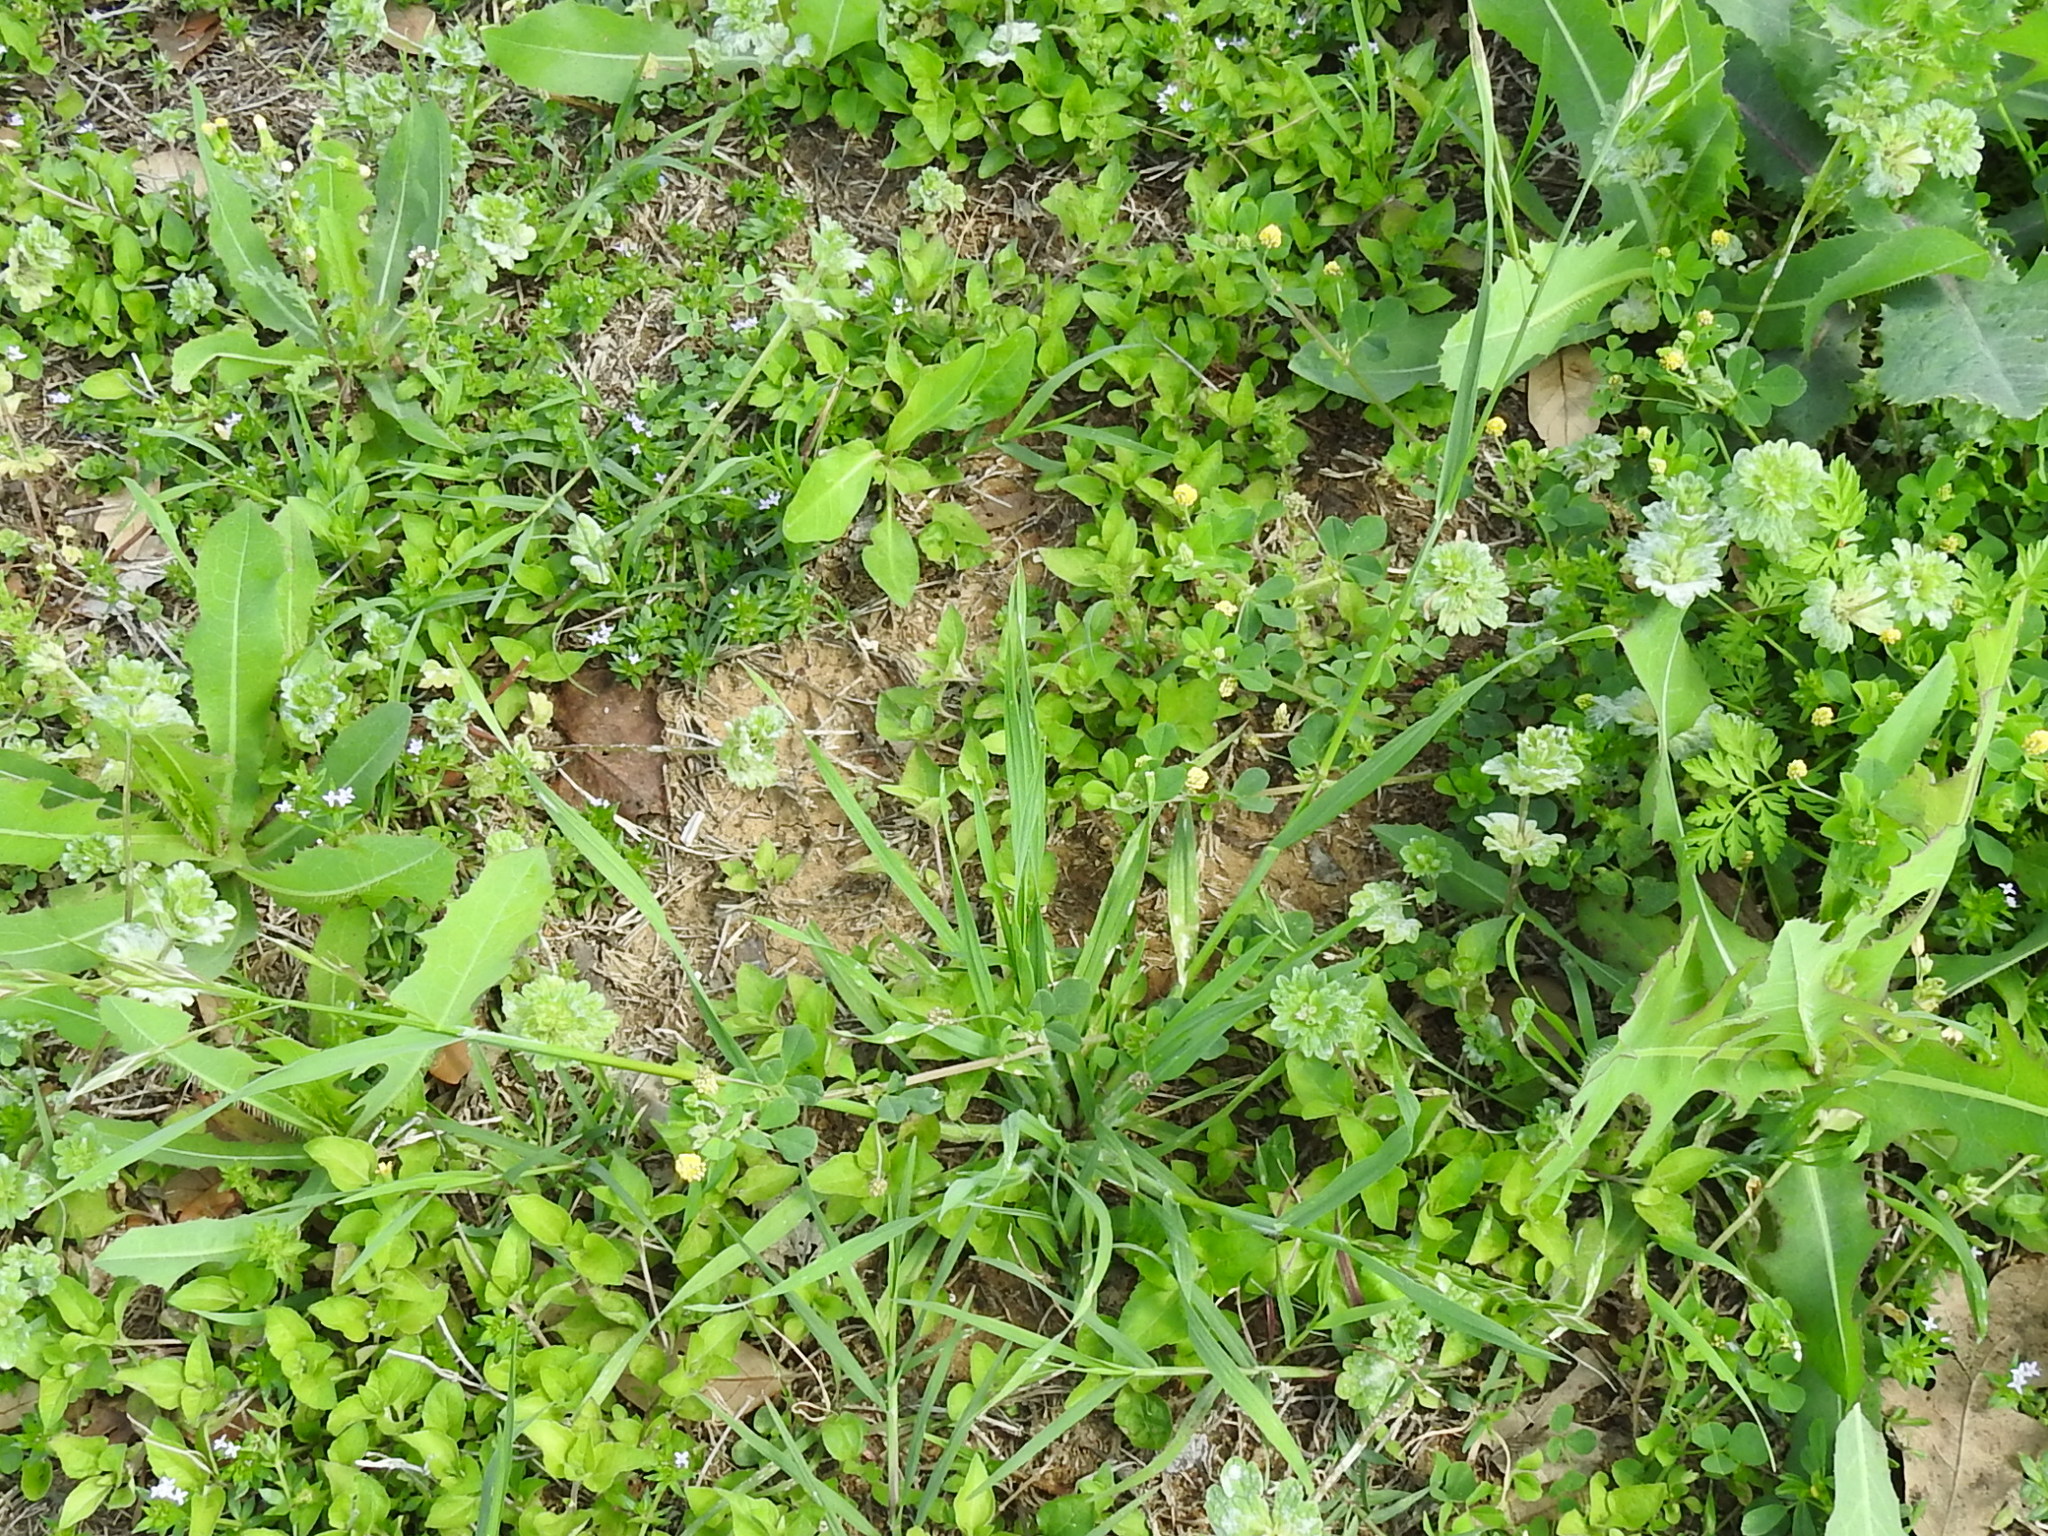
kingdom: Plantae
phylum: Tracheophyta
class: Liliopsida
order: Poales
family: Poaceae
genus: Bromus
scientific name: Bromus catharticus
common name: Rescuegrass
